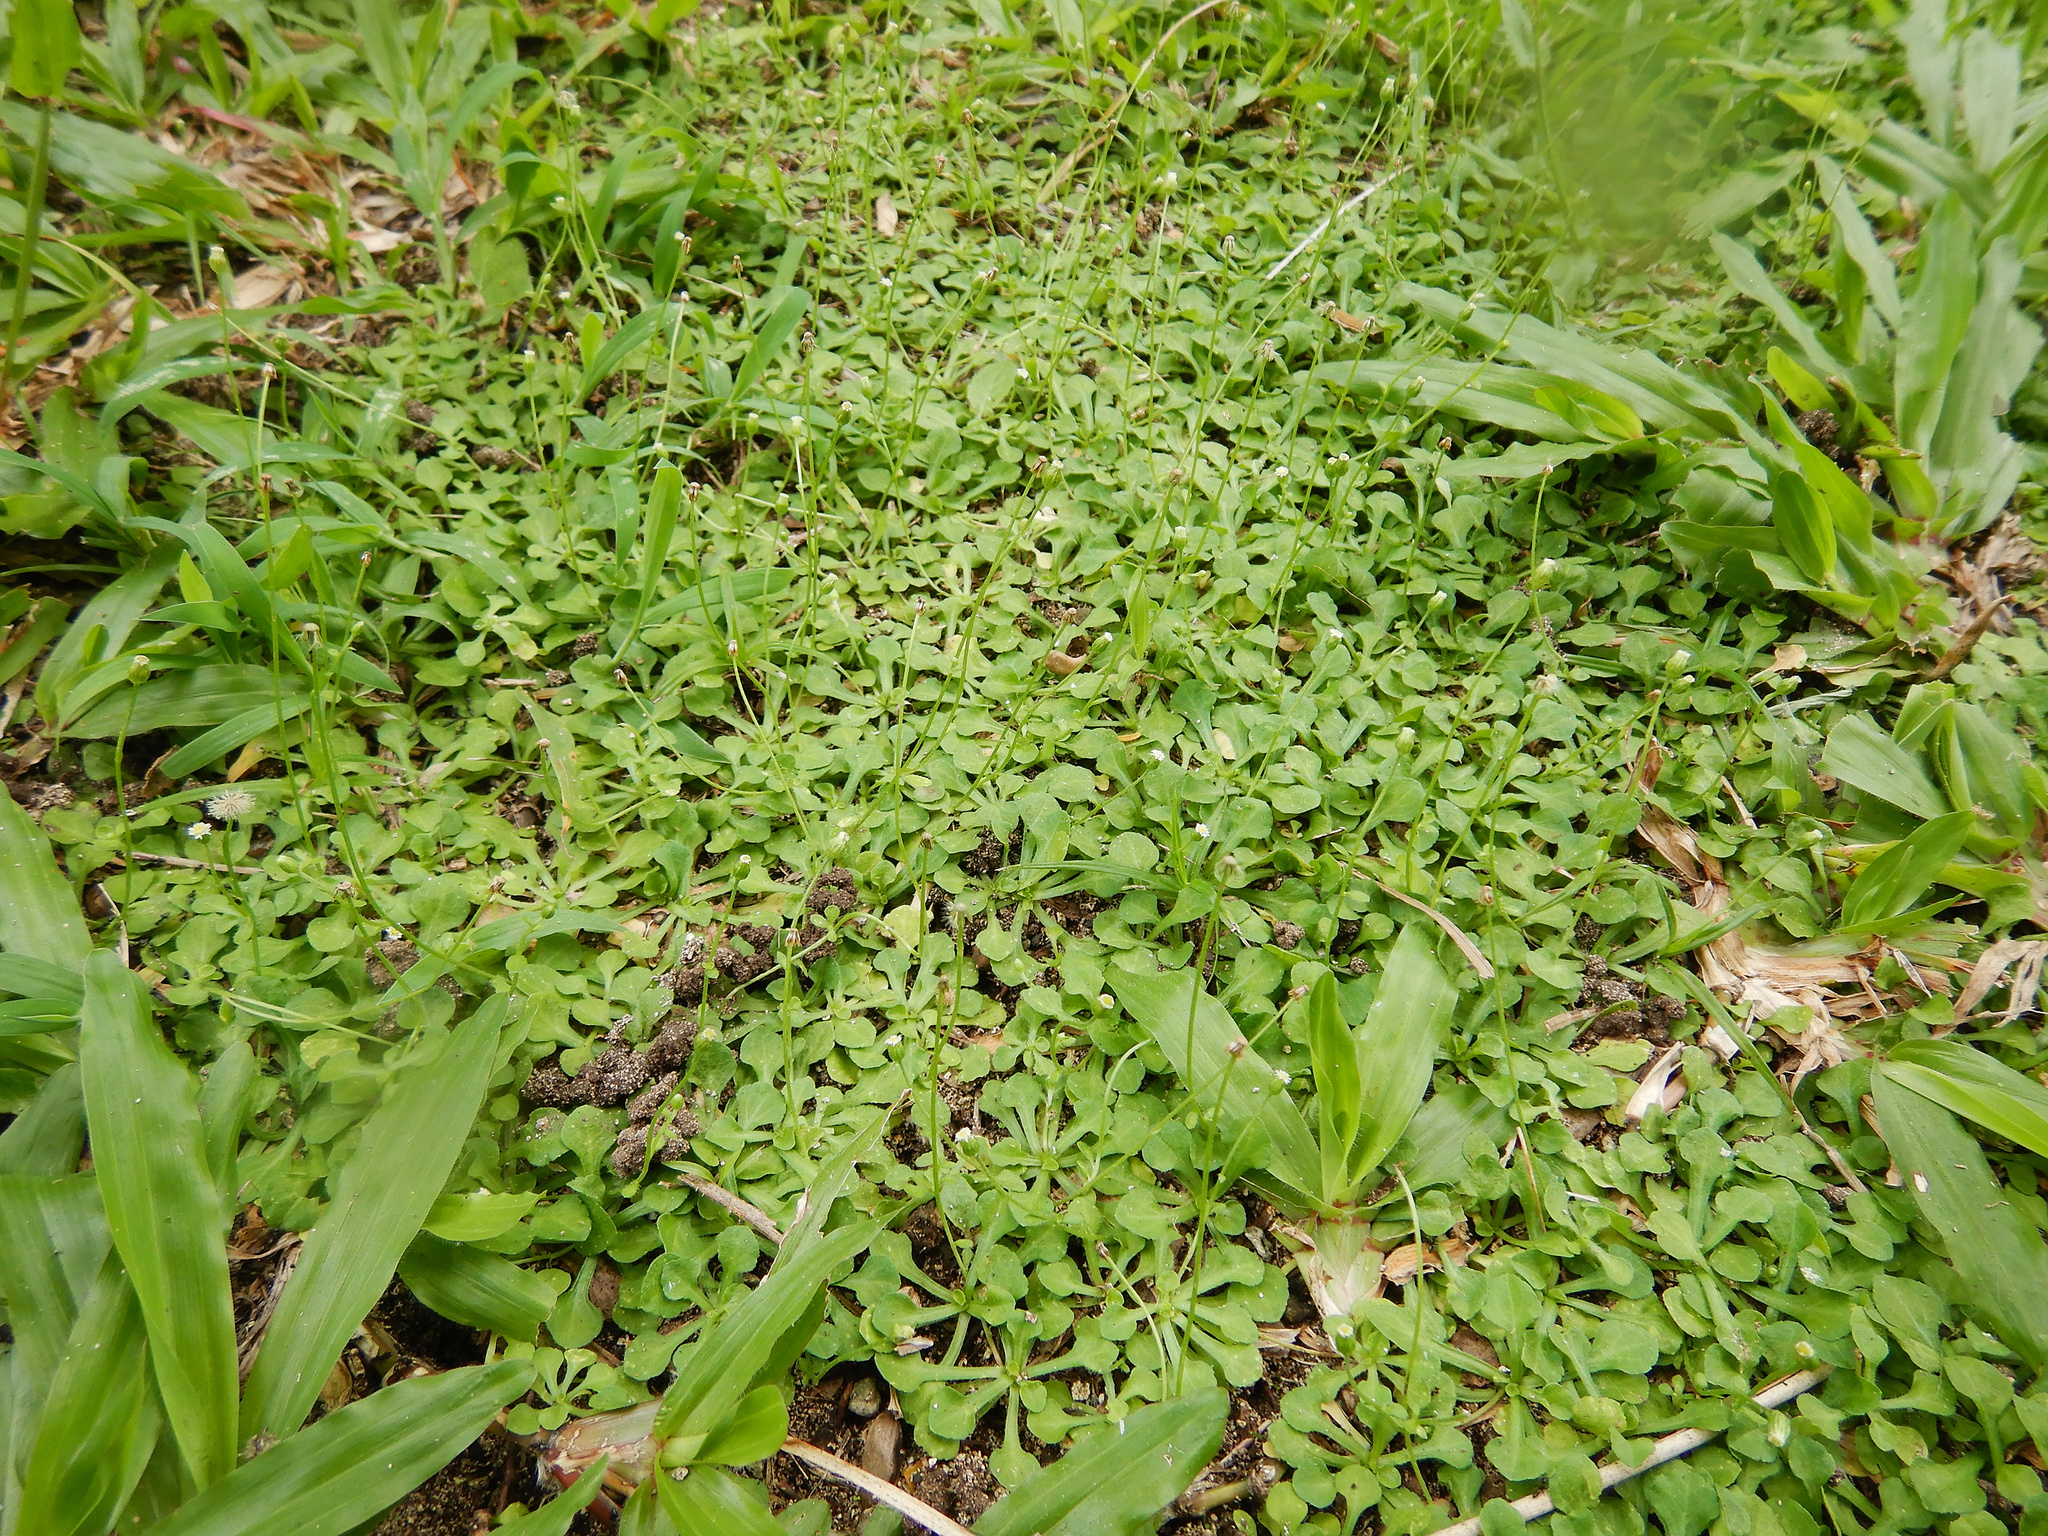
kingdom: Plantae
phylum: Tracheophyta
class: Magnoliopsida
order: Asterales
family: Asteraceae
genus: Erigeron
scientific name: Erigeron bellioides
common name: Bellorita
